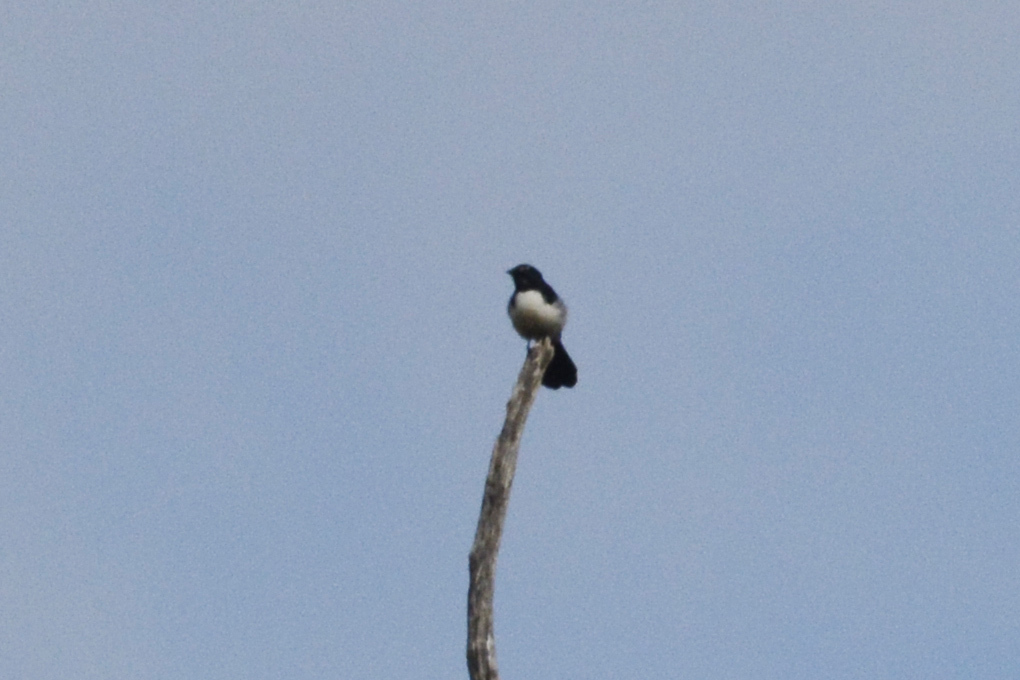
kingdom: Animalia
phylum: Chordata
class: Aves
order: Passeriformes
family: Rhipiduridae
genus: Rhipidura
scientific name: Rhipidura leucophrys
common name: Willie wagtail
